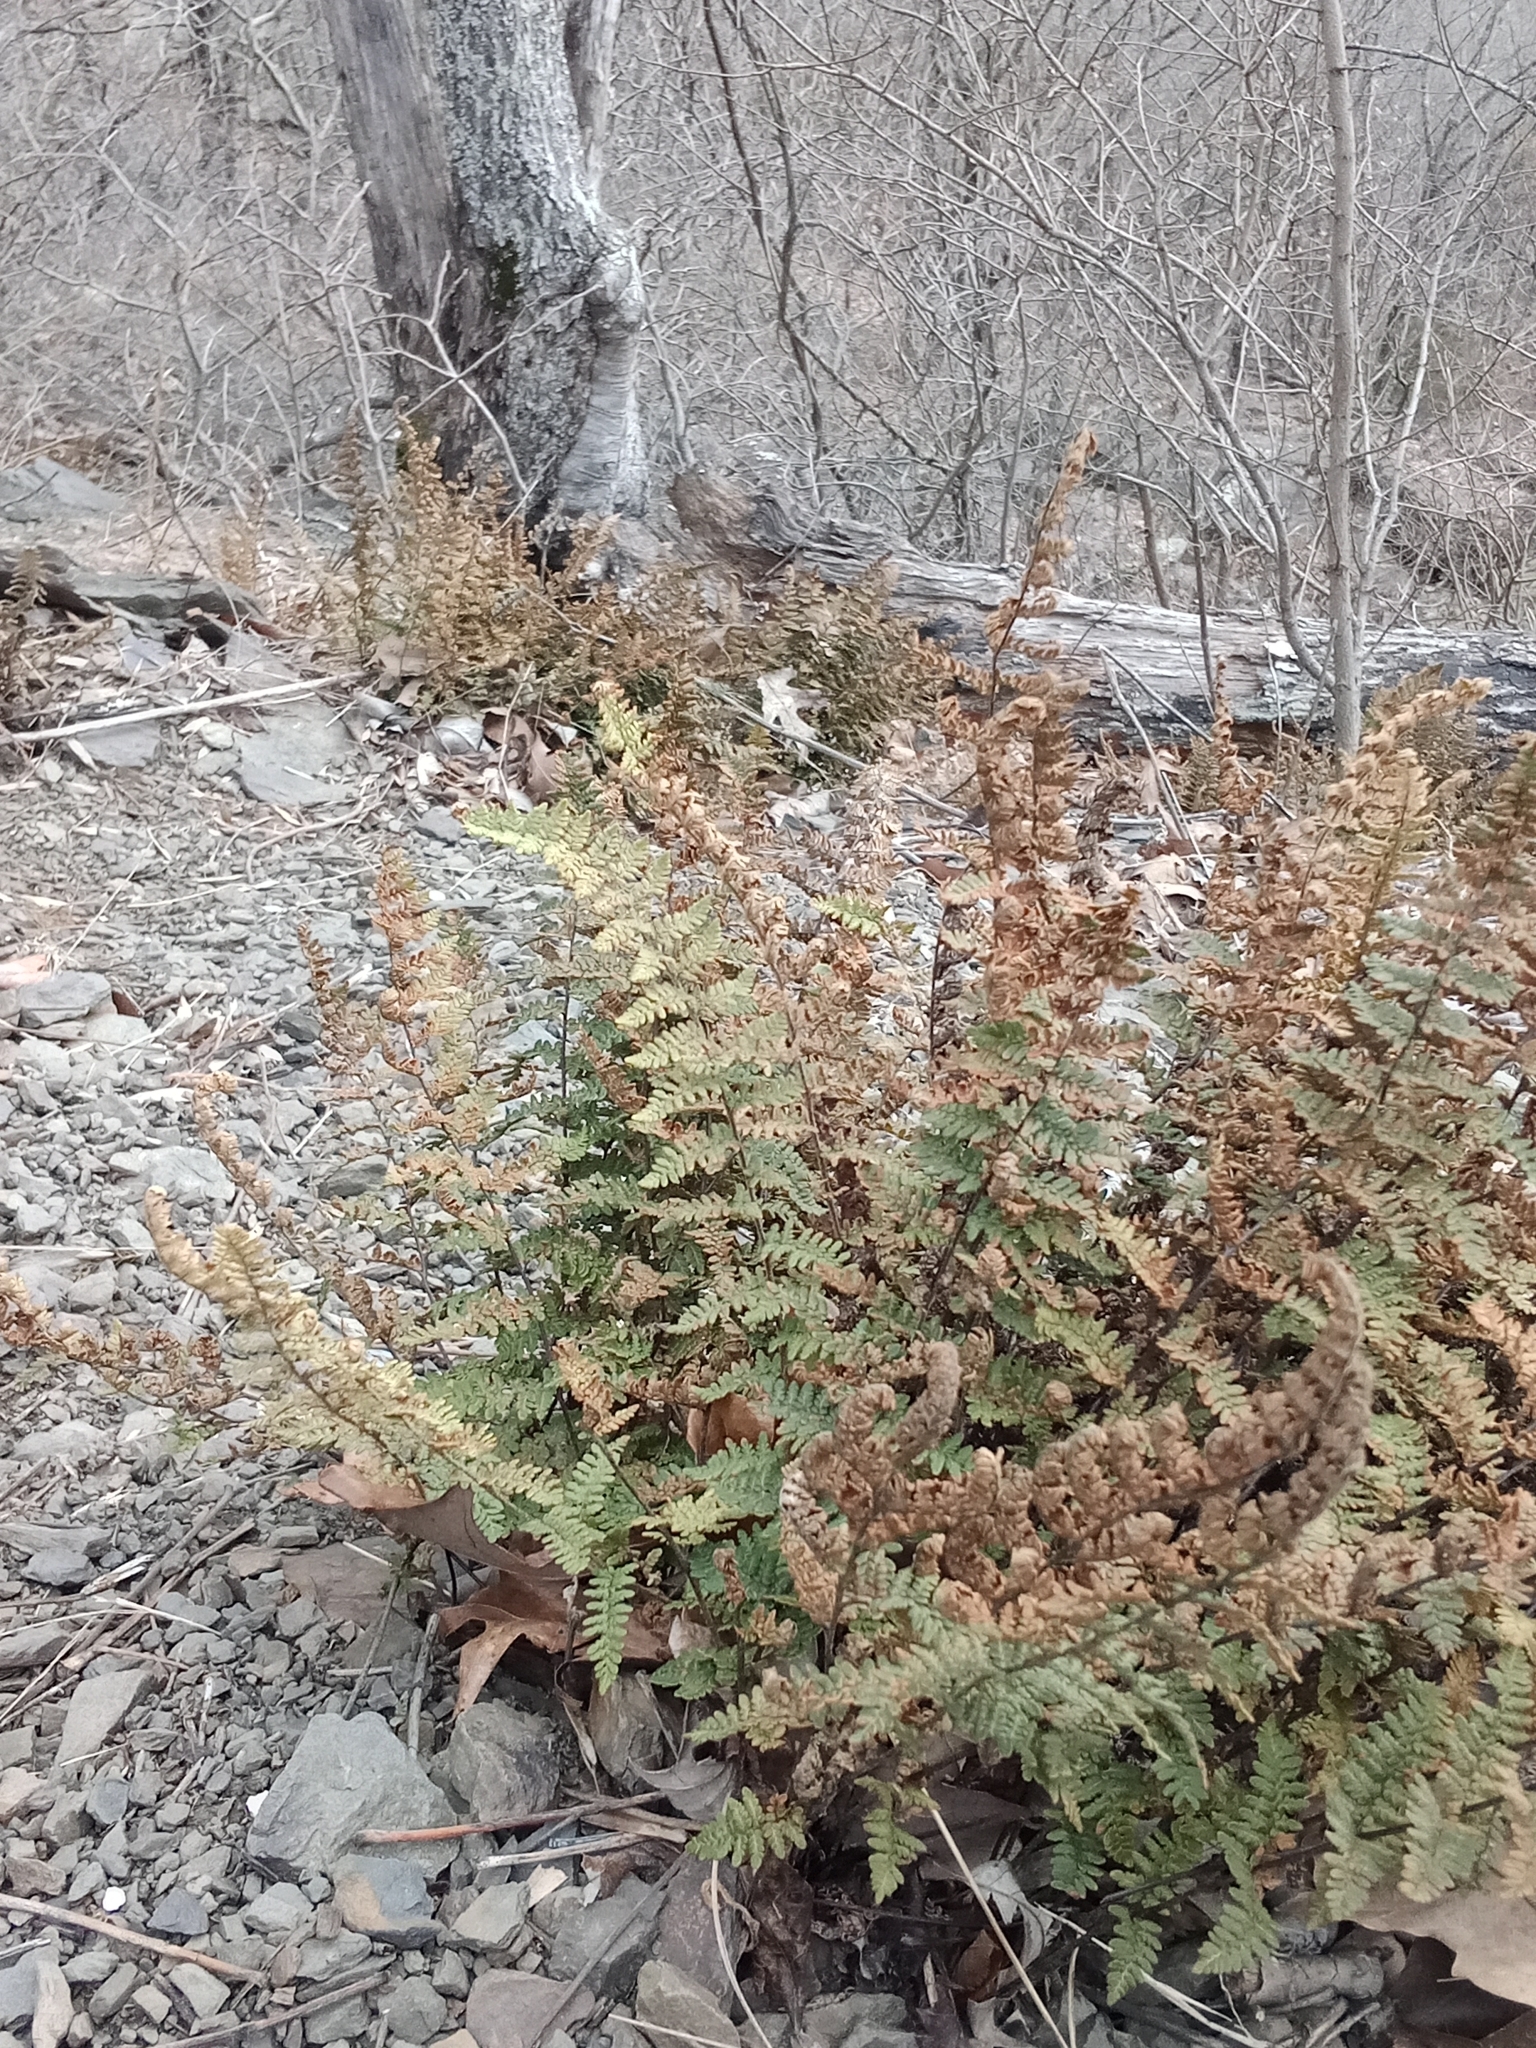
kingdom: Plantae
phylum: Tracheophyta
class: Polypodiopsida
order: Polypodiales
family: Pteridaceae
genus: Myriopteris
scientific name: Myriopteris lanosa
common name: Hairy lip fern
